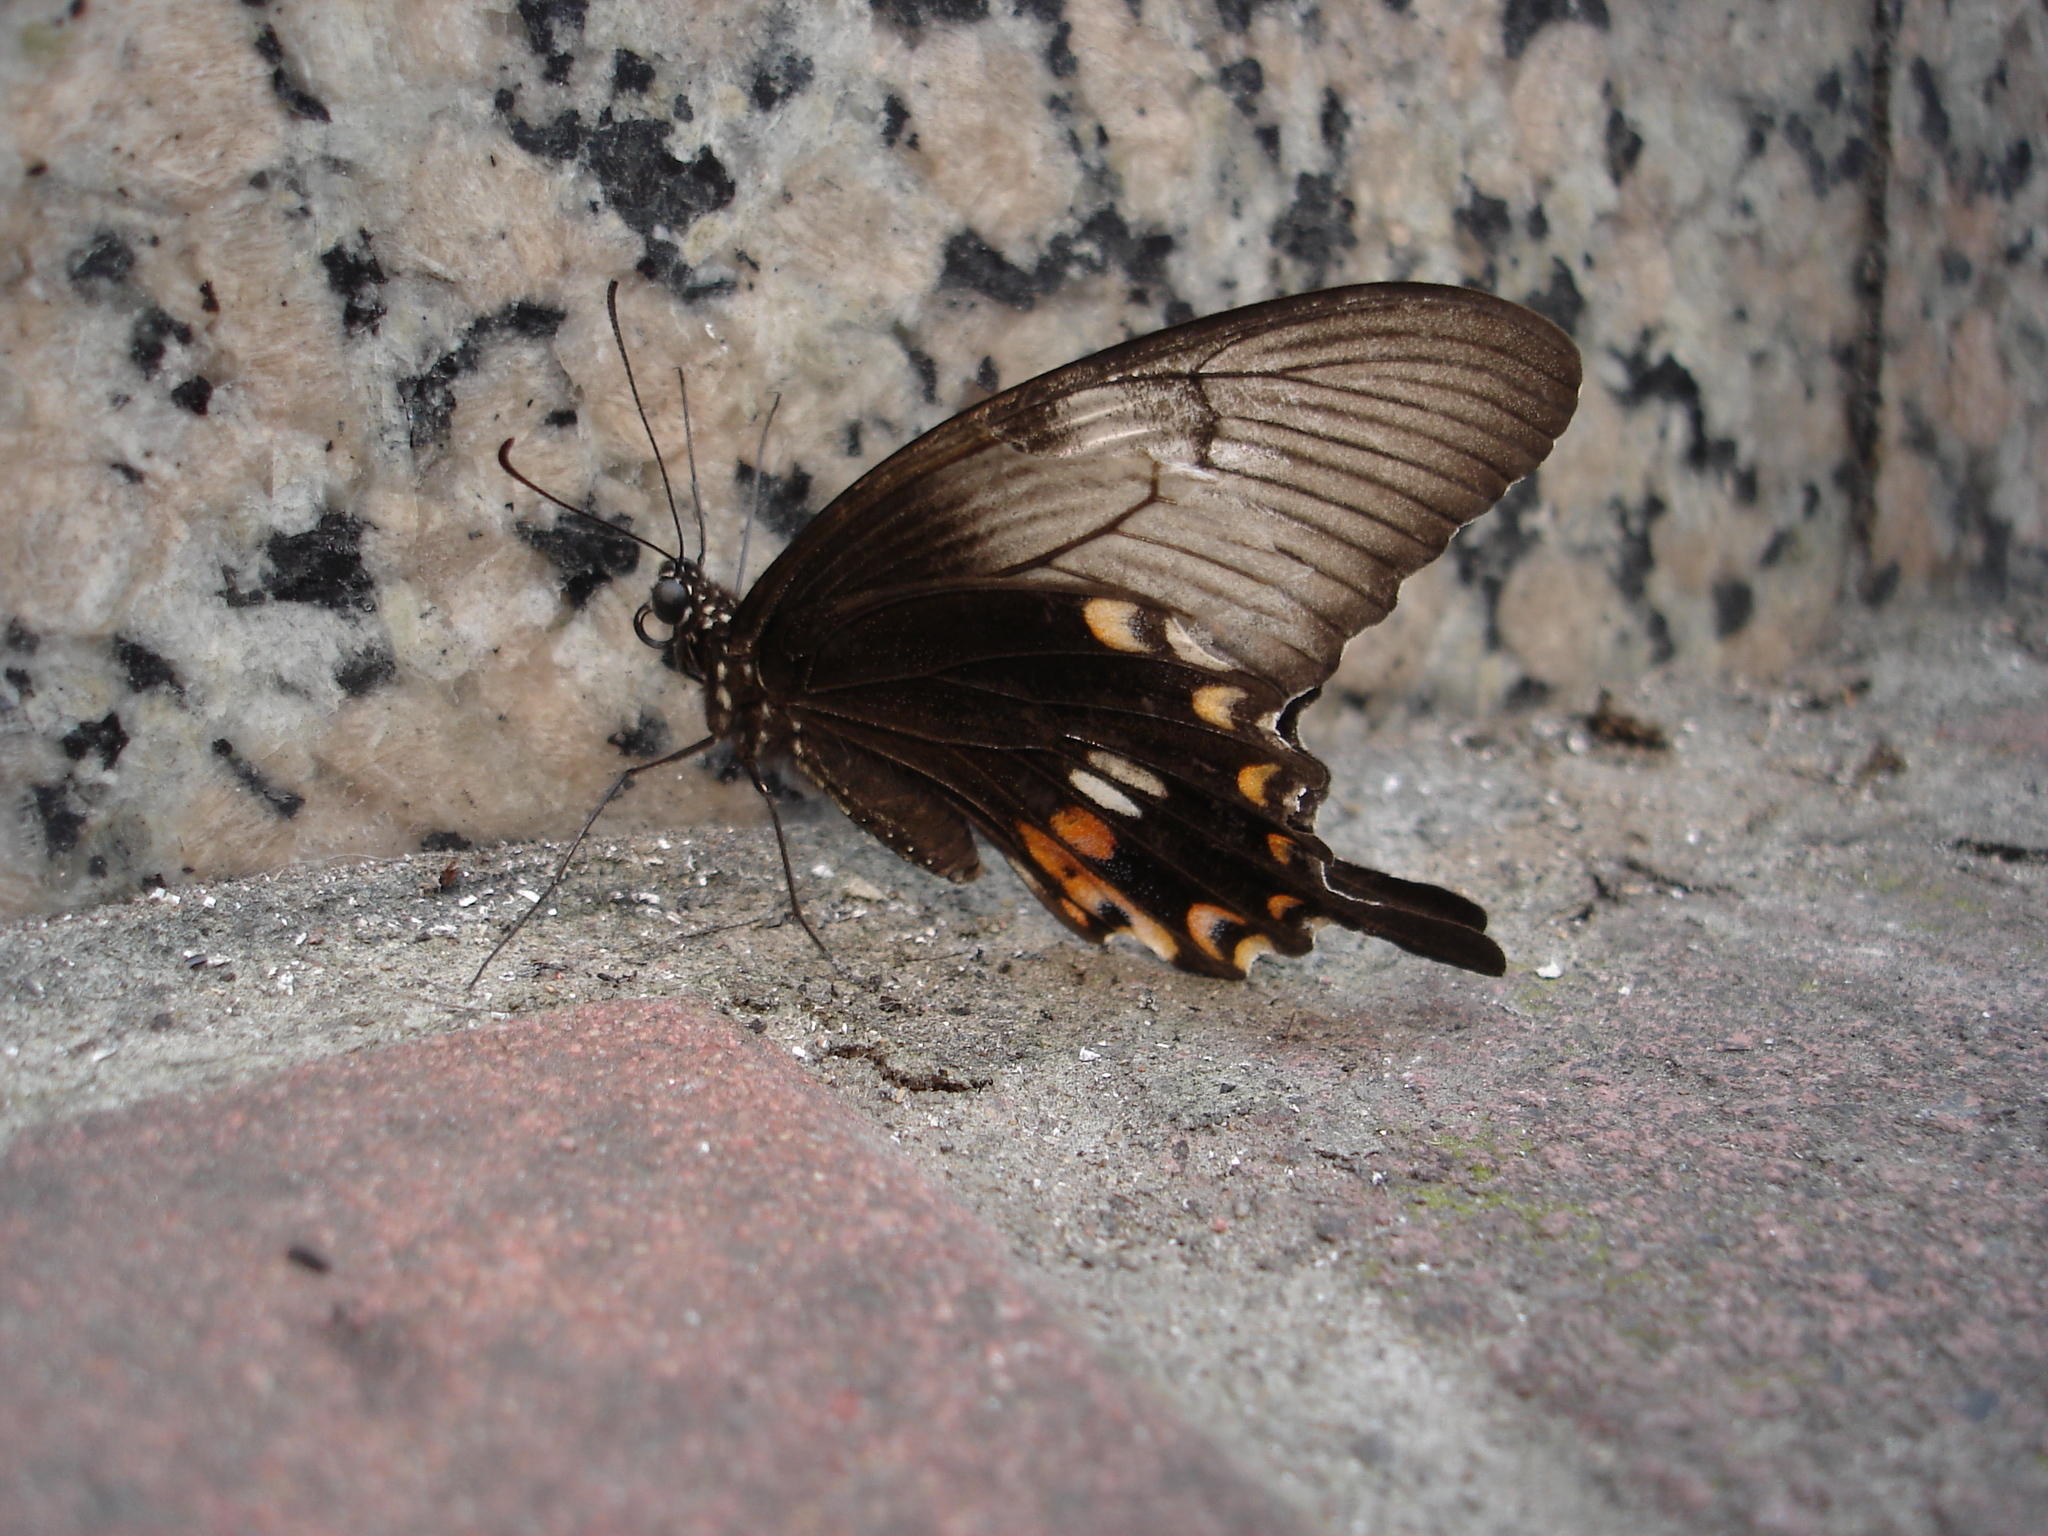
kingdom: Animalia
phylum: Arthropoda
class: Insecta
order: Lepidoptera
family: Papilionidae
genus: Papilio
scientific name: Papilio polytes
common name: Common mormon
